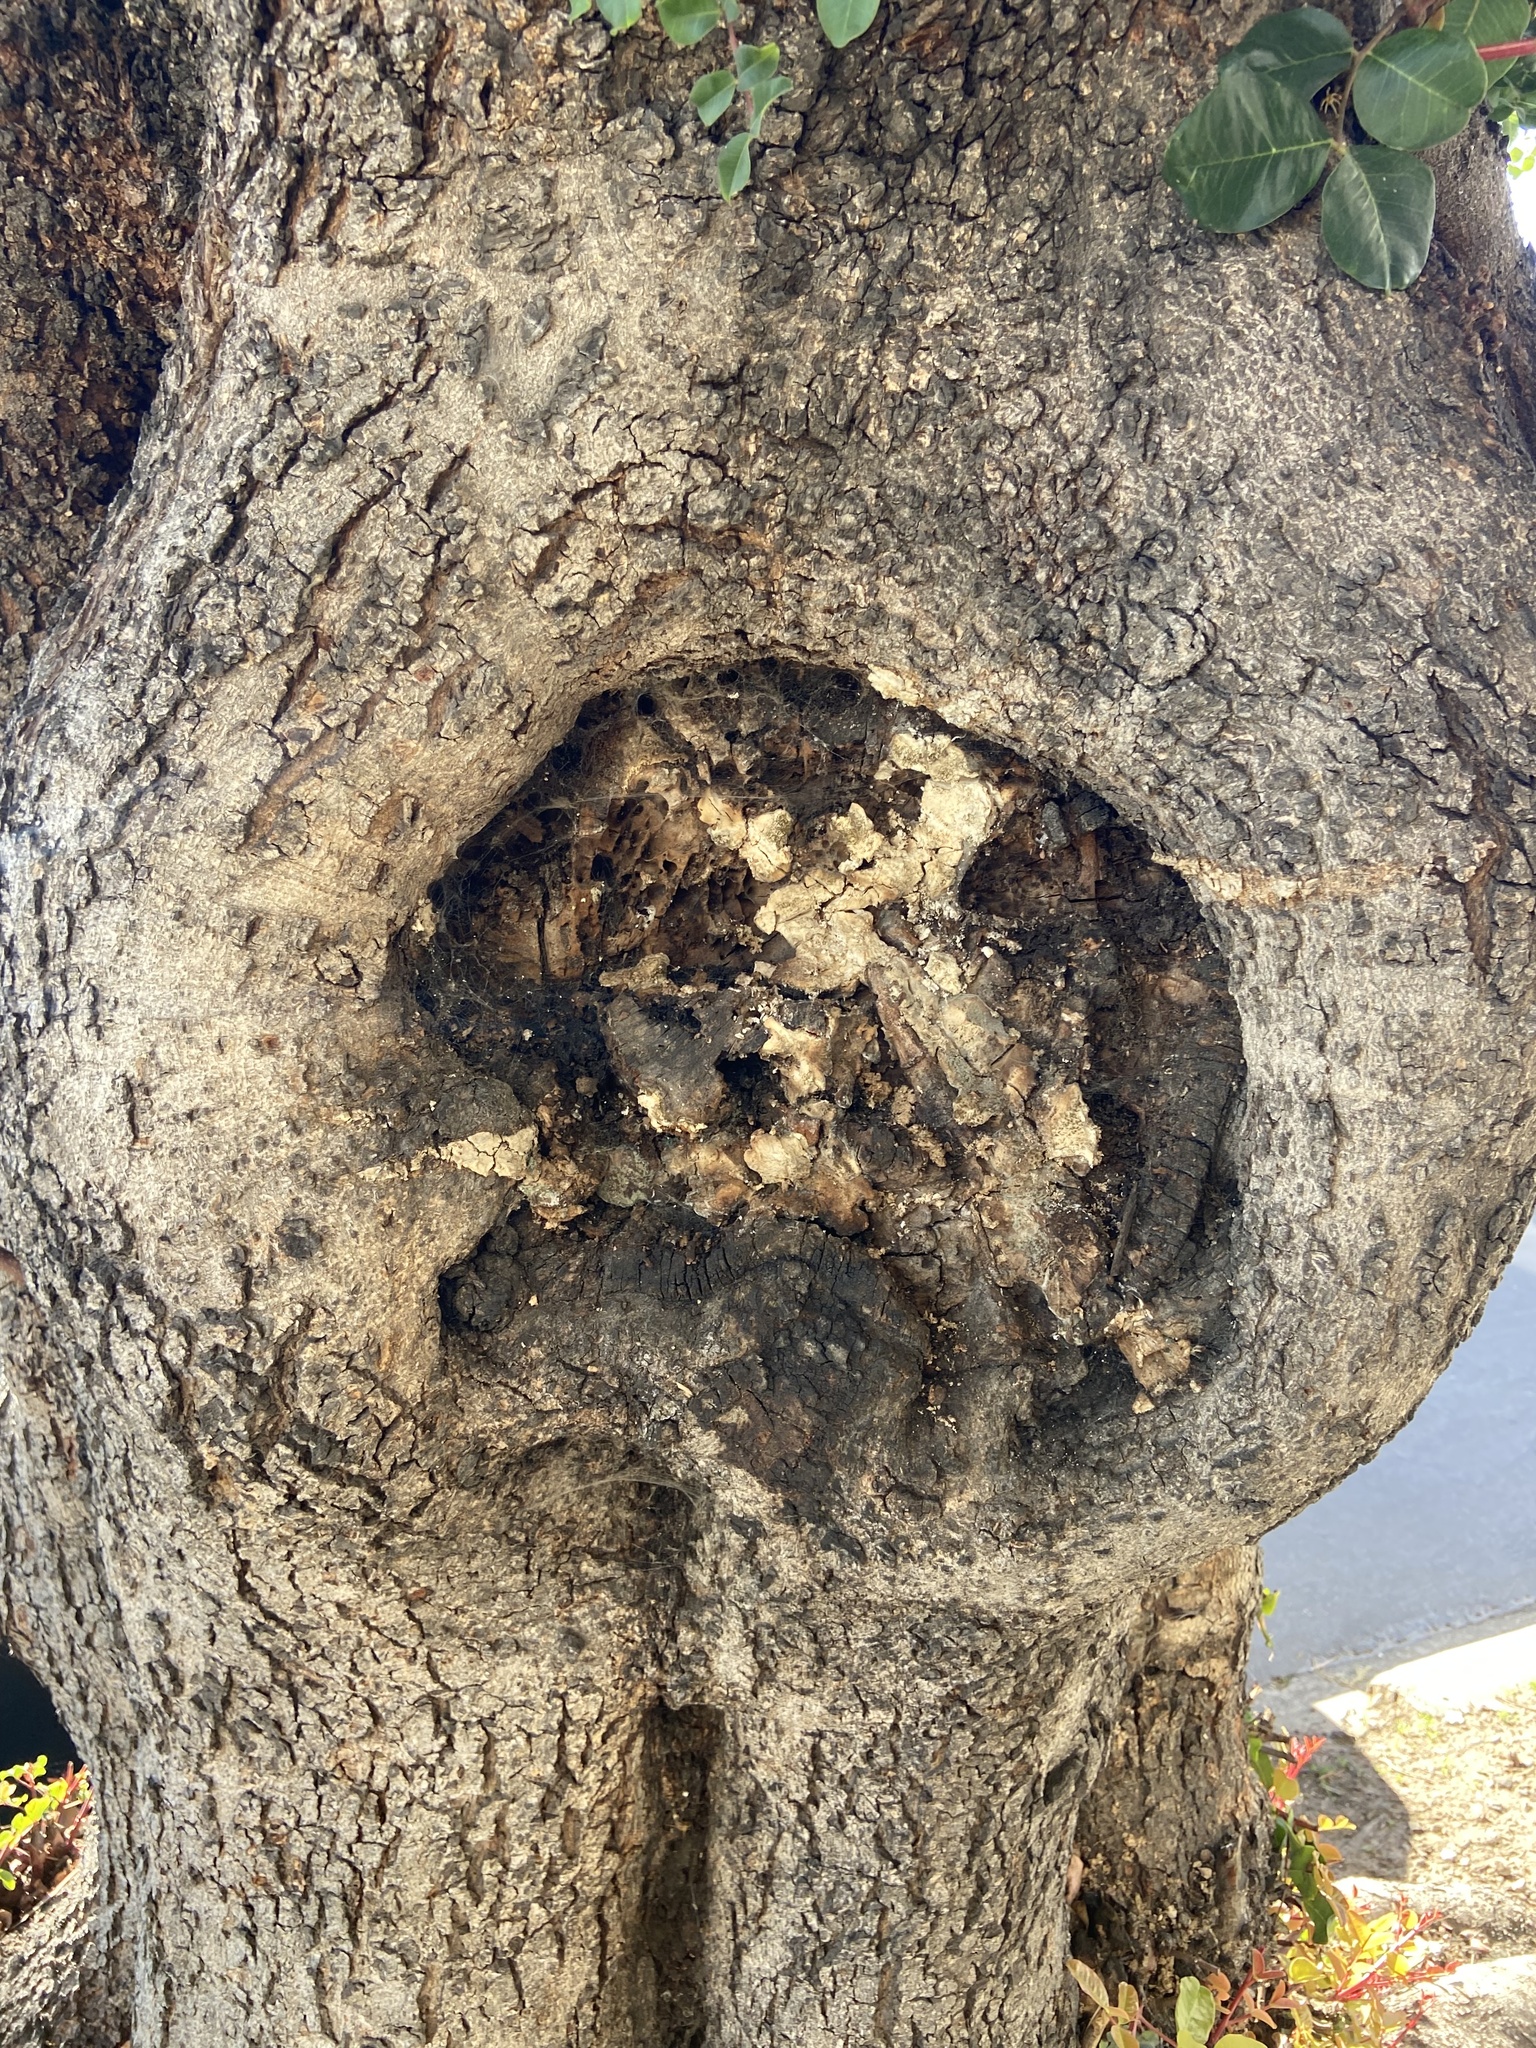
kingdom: Fungi
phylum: Basidiomycota
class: Agaricomycetes
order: Polyporales
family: Laetiporaceae
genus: Laetiporus
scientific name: Laetiporus gilbertsonii
